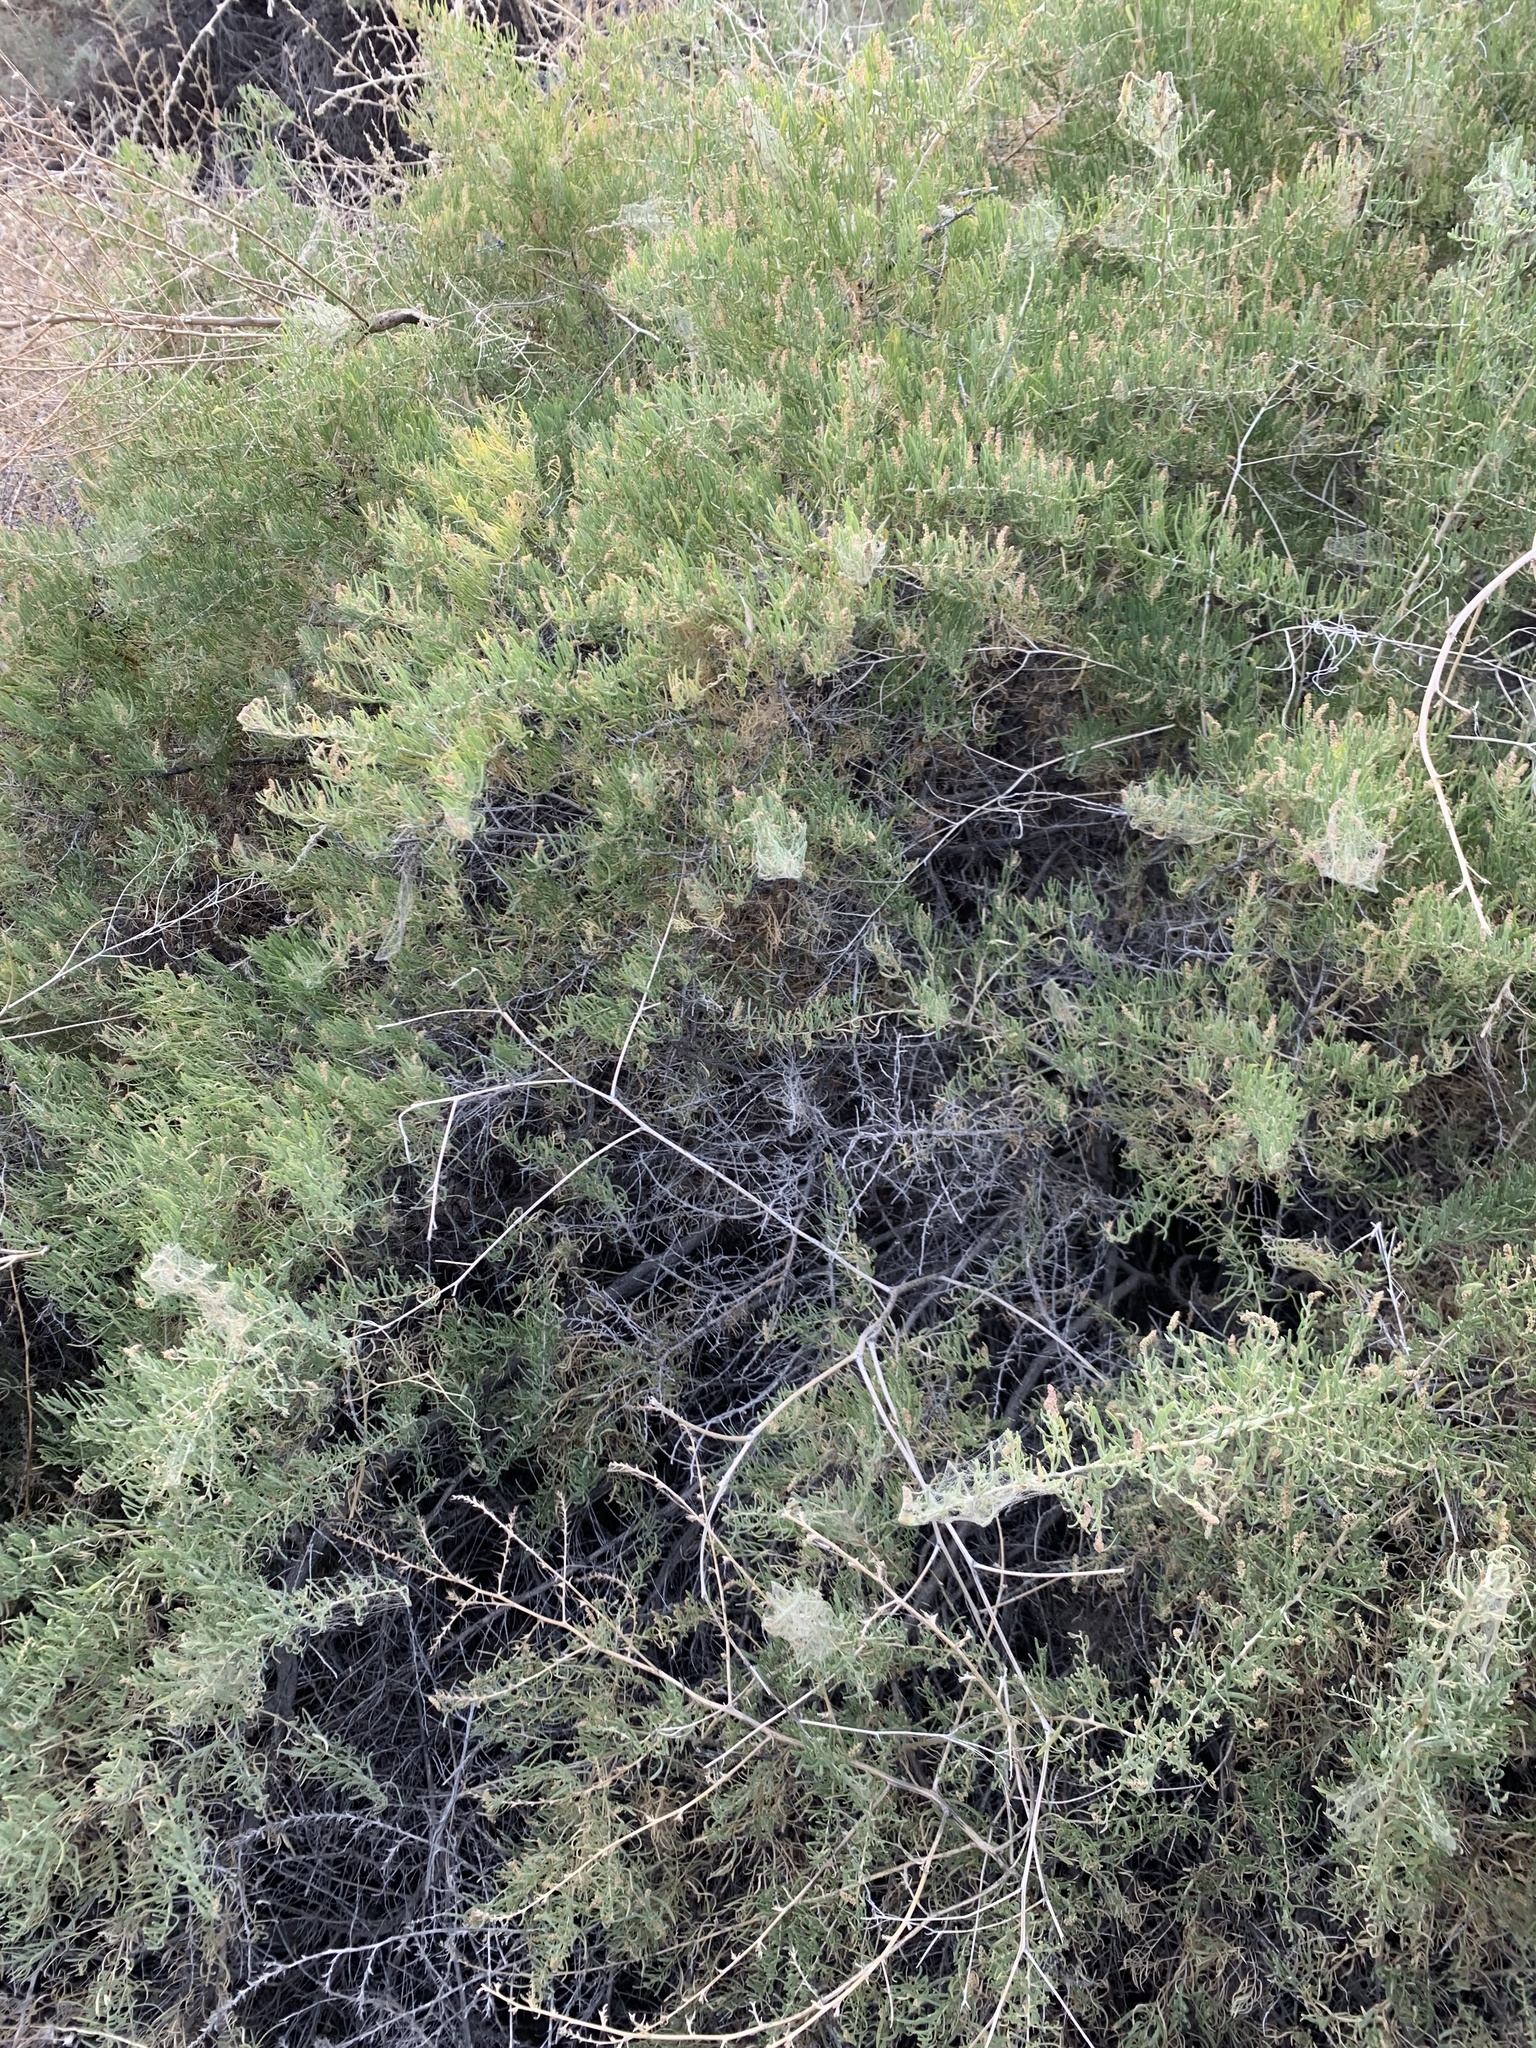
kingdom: Plantae
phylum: Tracheophyta
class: Magnoliopsida
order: Caryophyllales
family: Sarcobataceae
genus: Sarcobatus
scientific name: Sarcobatus vermiculatus
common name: Greasewood
